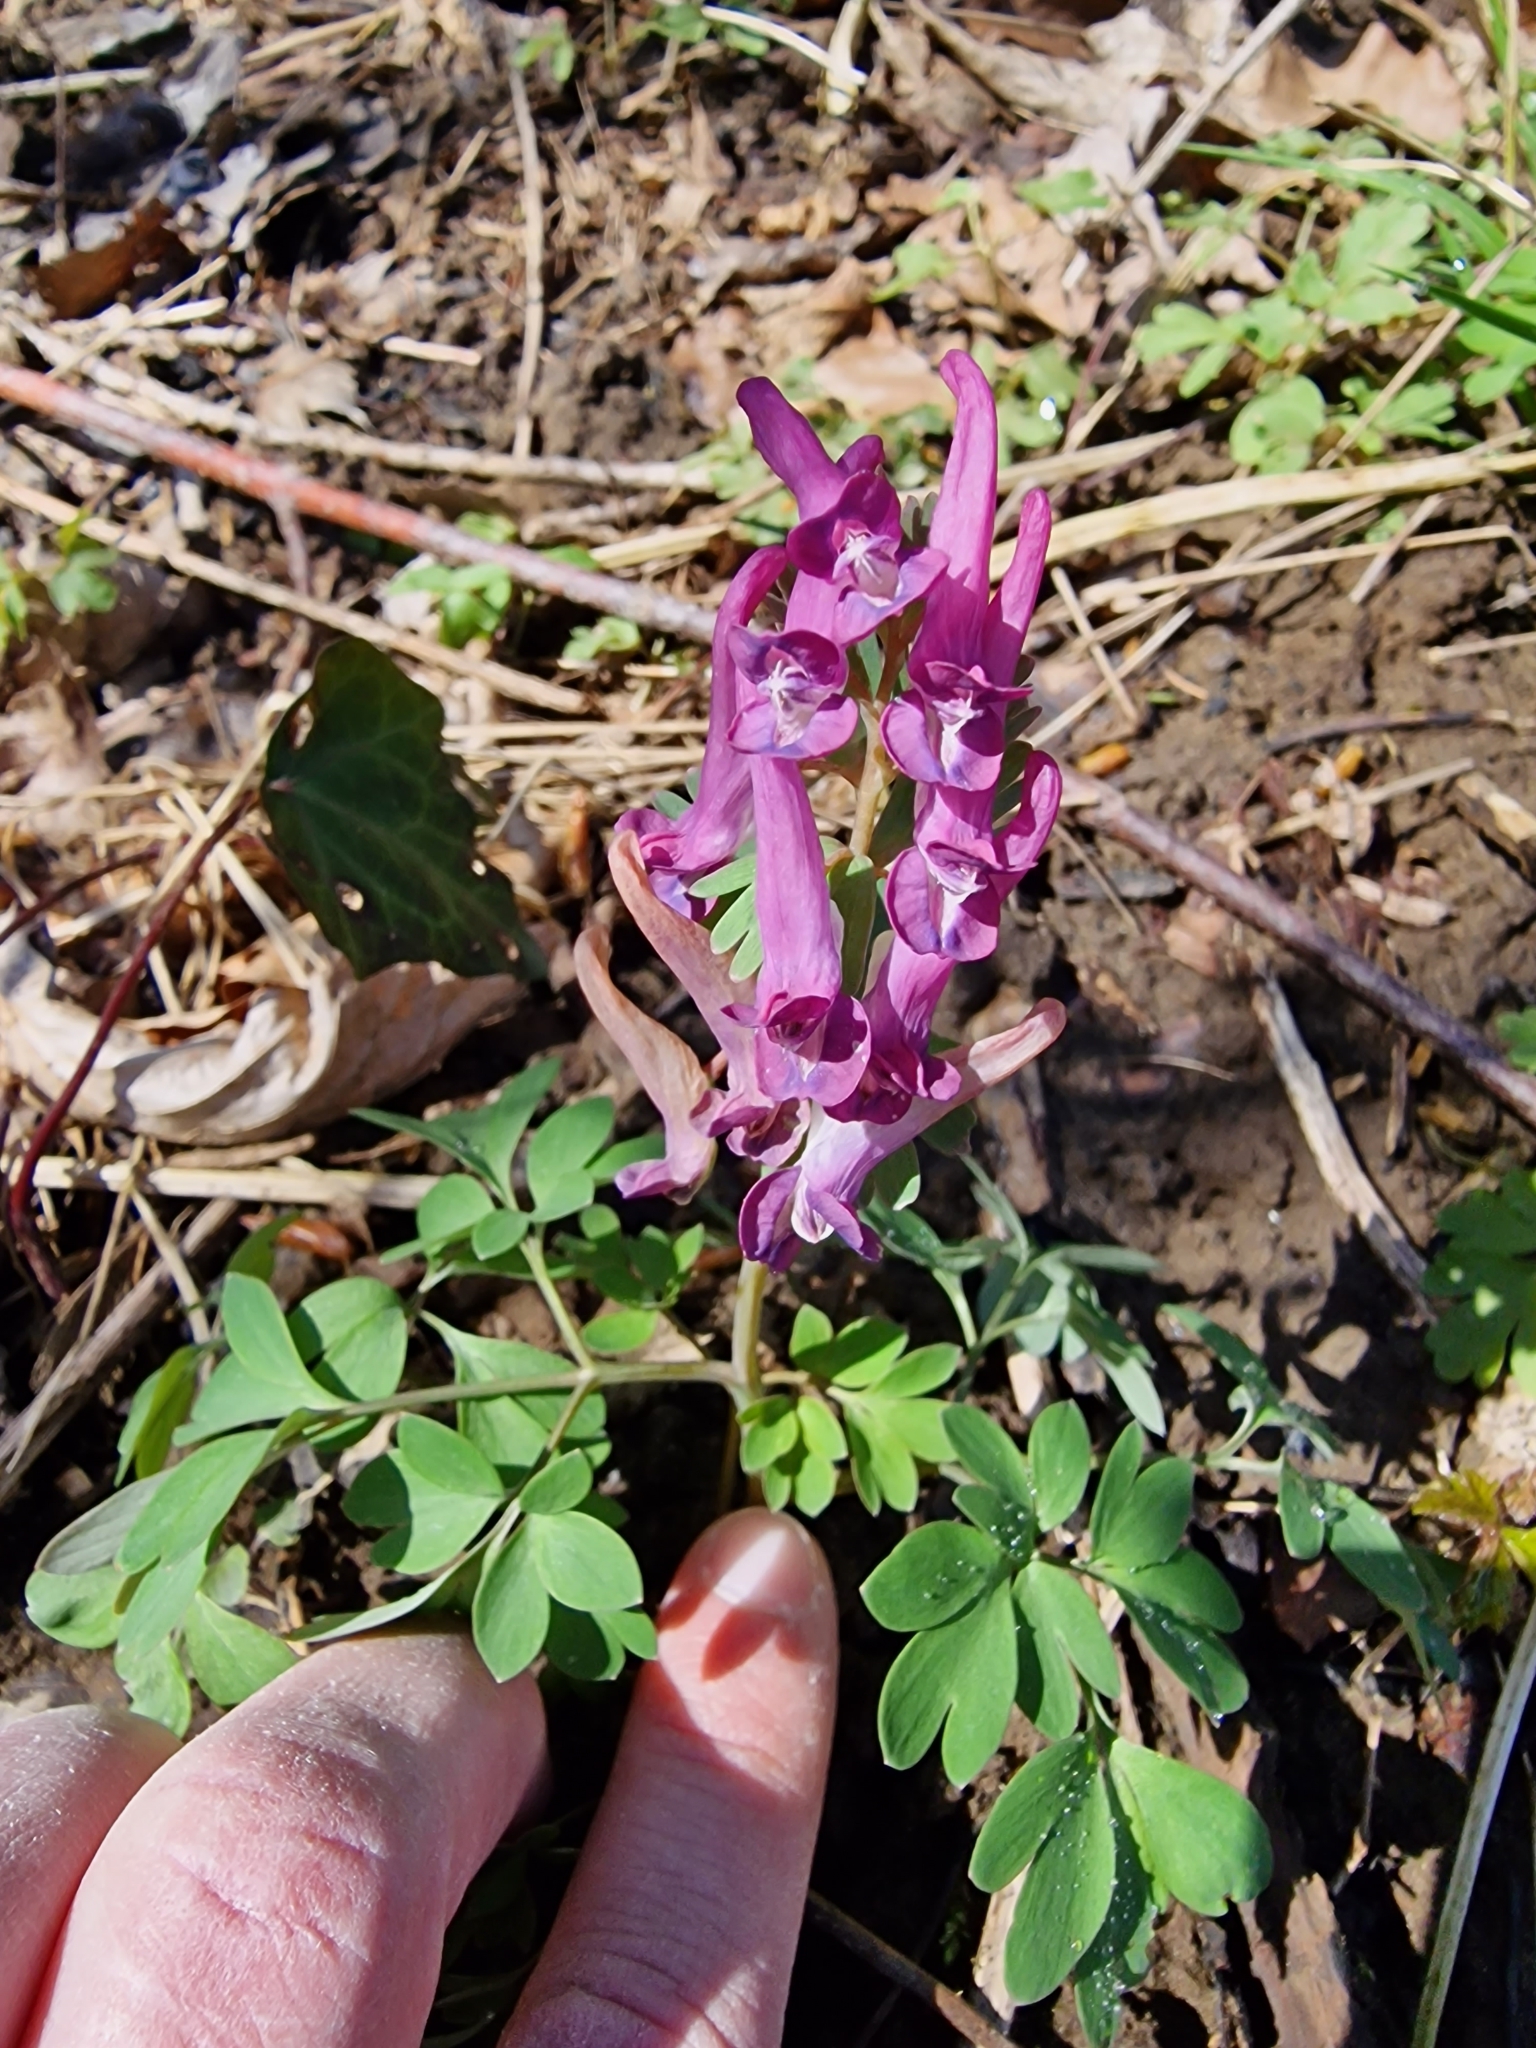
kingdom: Plantae
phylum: Tracheophyta
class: Magnoliopsida
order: Ranunculales
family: Papaveraceae
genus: Corydalis
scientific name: Corydalis solida
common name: Bird-in-a-bush
